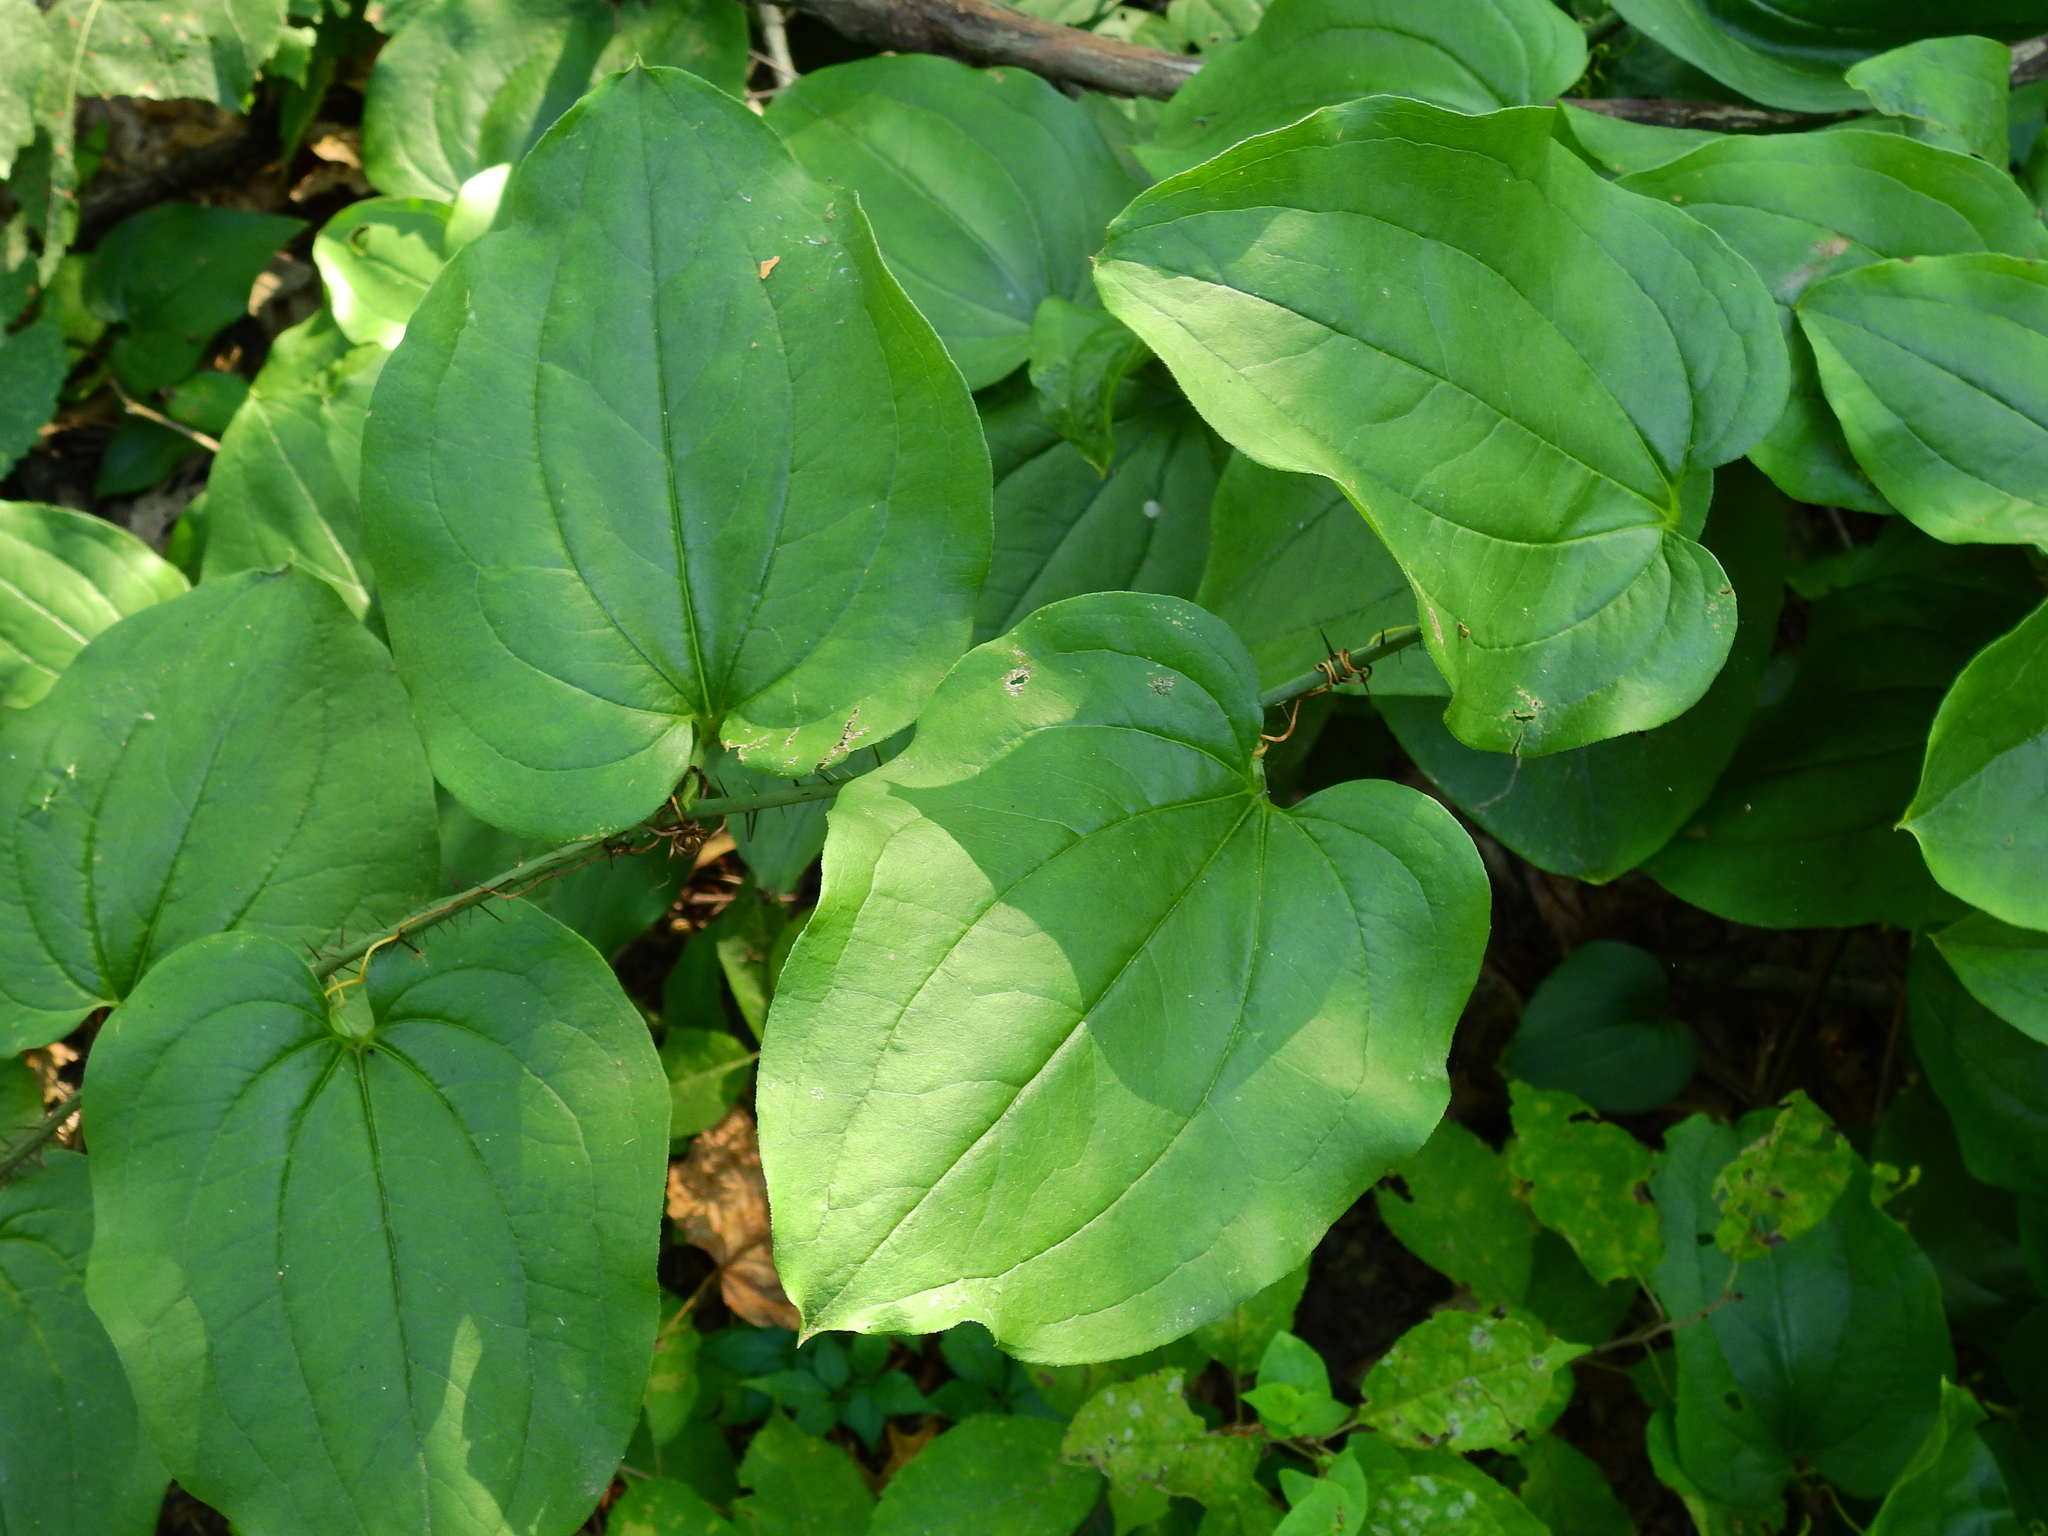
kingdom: Plantae
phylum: Tracheophyta
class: Liliopsida
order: Liliales
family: Smilacaceae
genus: Smilax
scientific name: Smilax tamnoides
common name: Hellfetter
